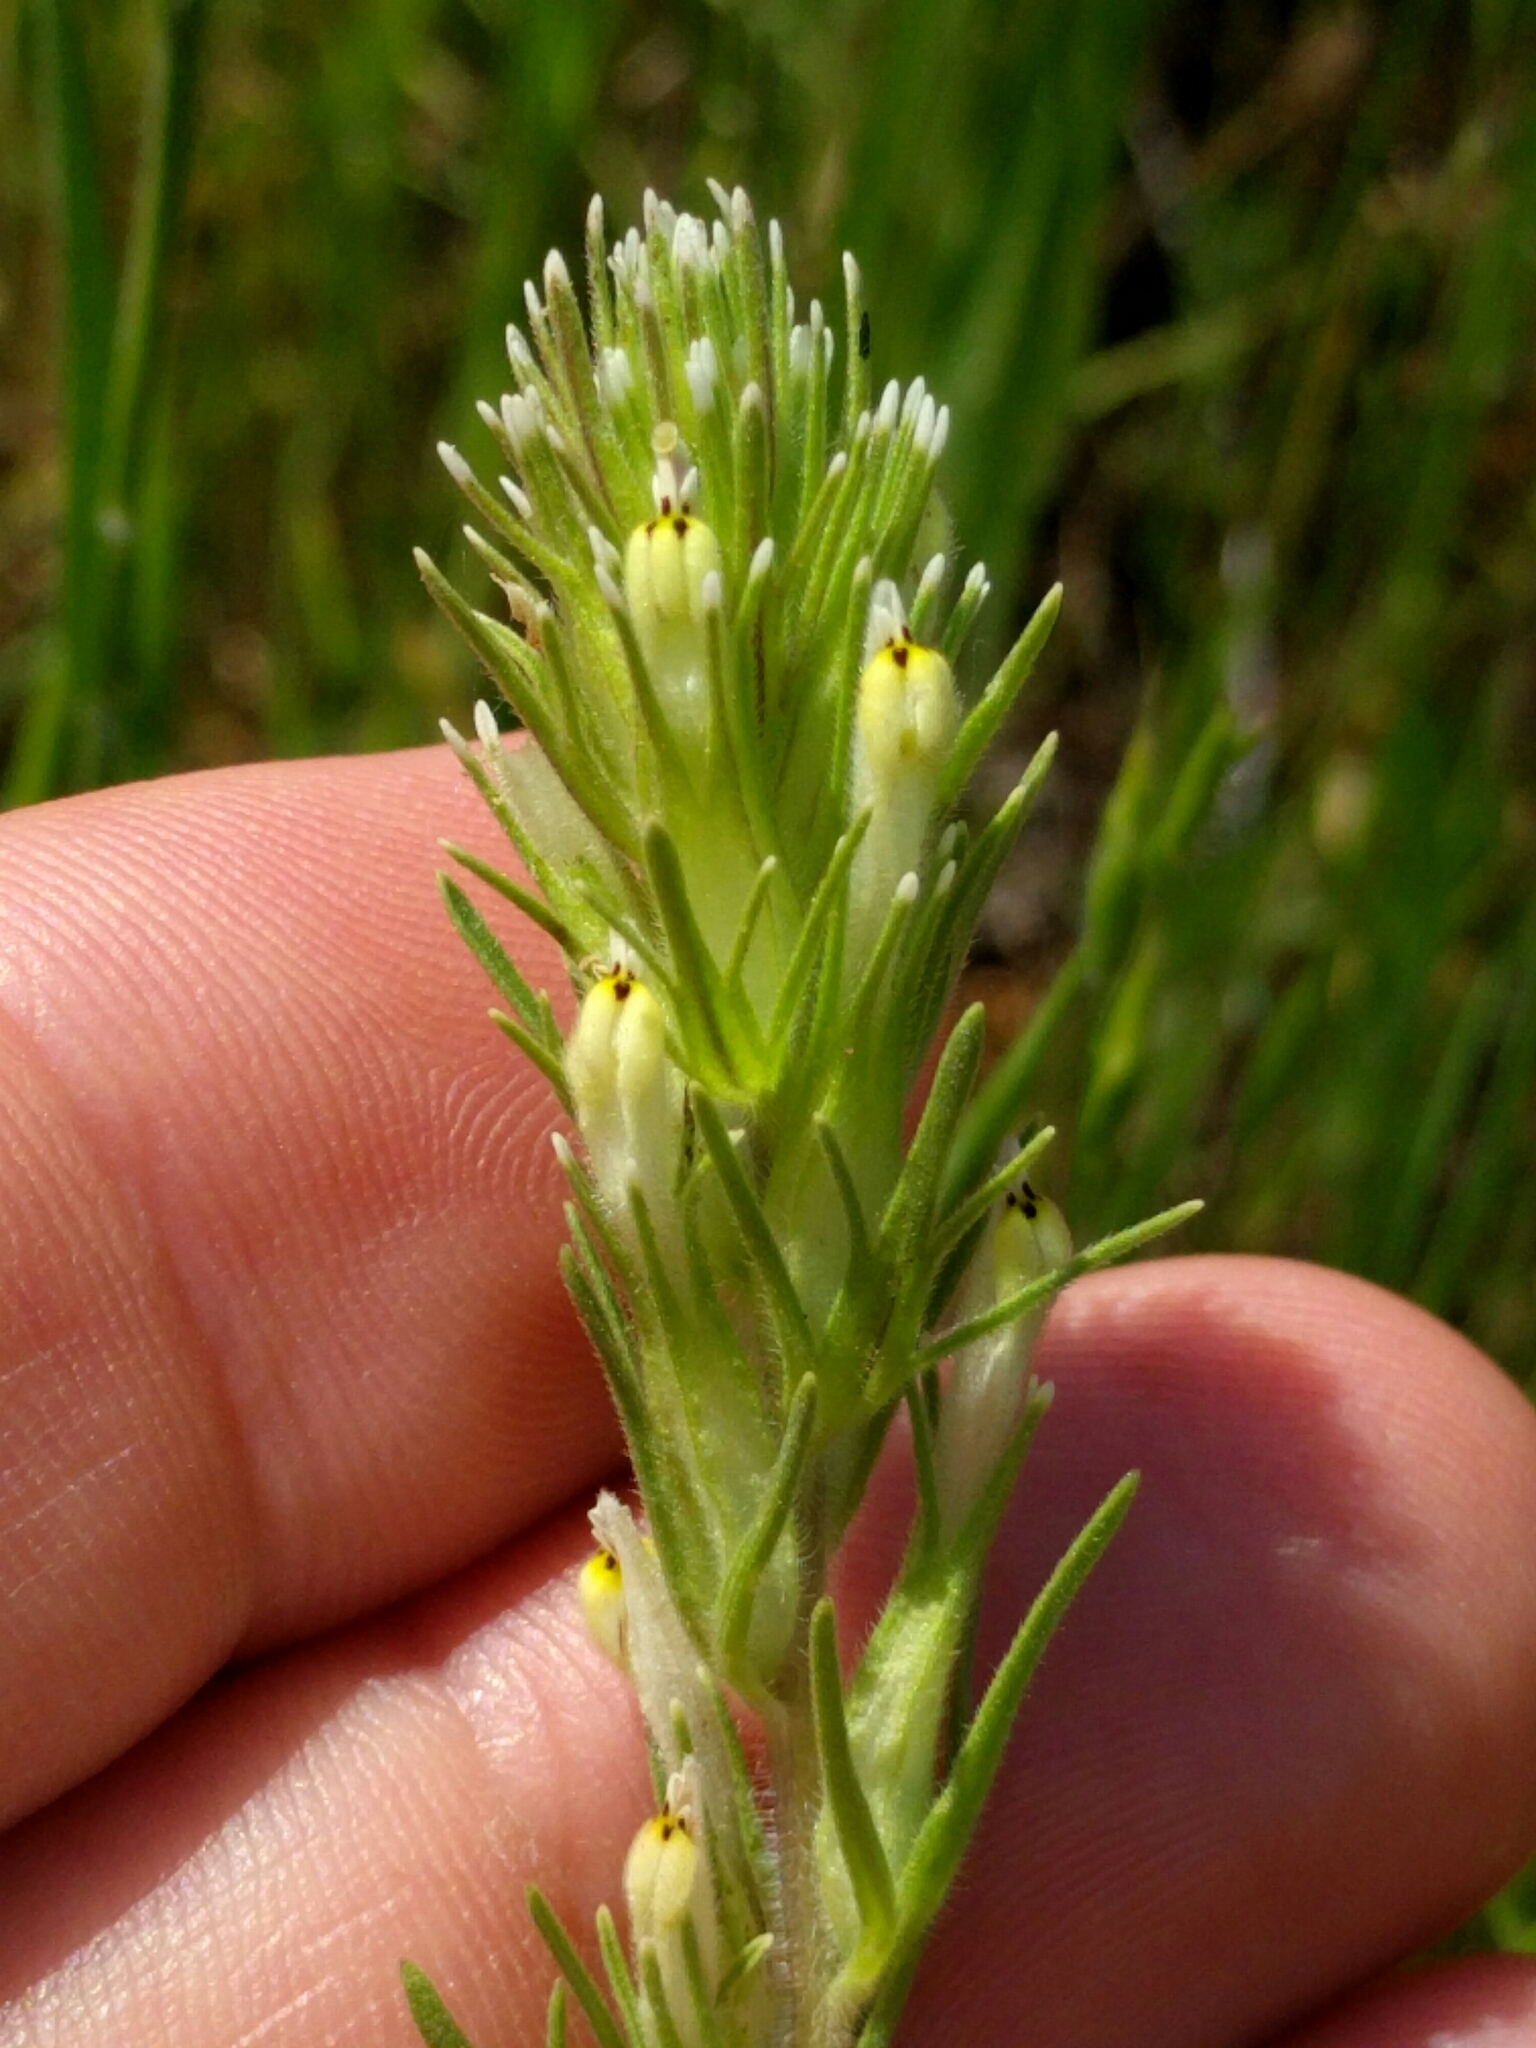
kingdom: Plantae
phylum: Tracheophyta
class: Magnoliopsida
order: Lamiales
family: Orobanchaceae
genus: Castilleja
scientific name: Castilleja attenuata
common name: Valley tassels
